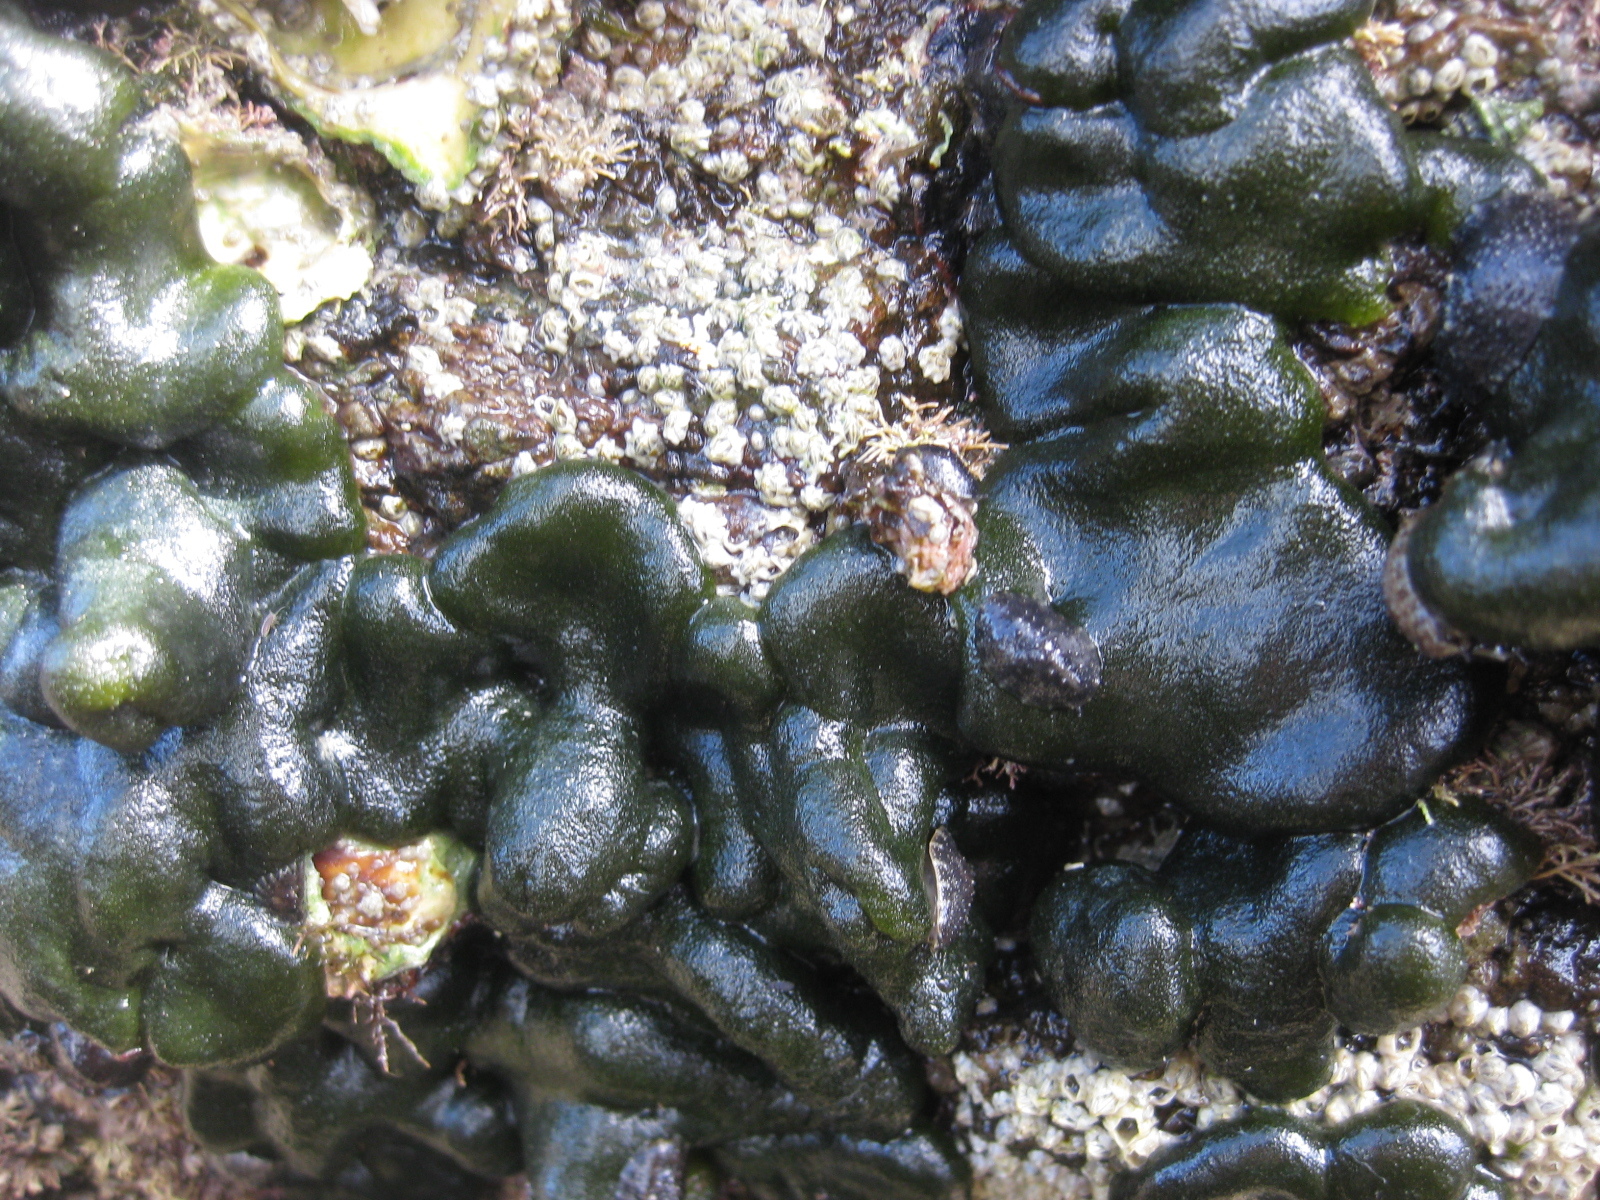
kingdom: Plantae
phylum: Chlorophyta
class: Ulvophyceae
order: Bryopsidales
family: Codiaceae
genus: Codium
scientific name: Codium convolutum
